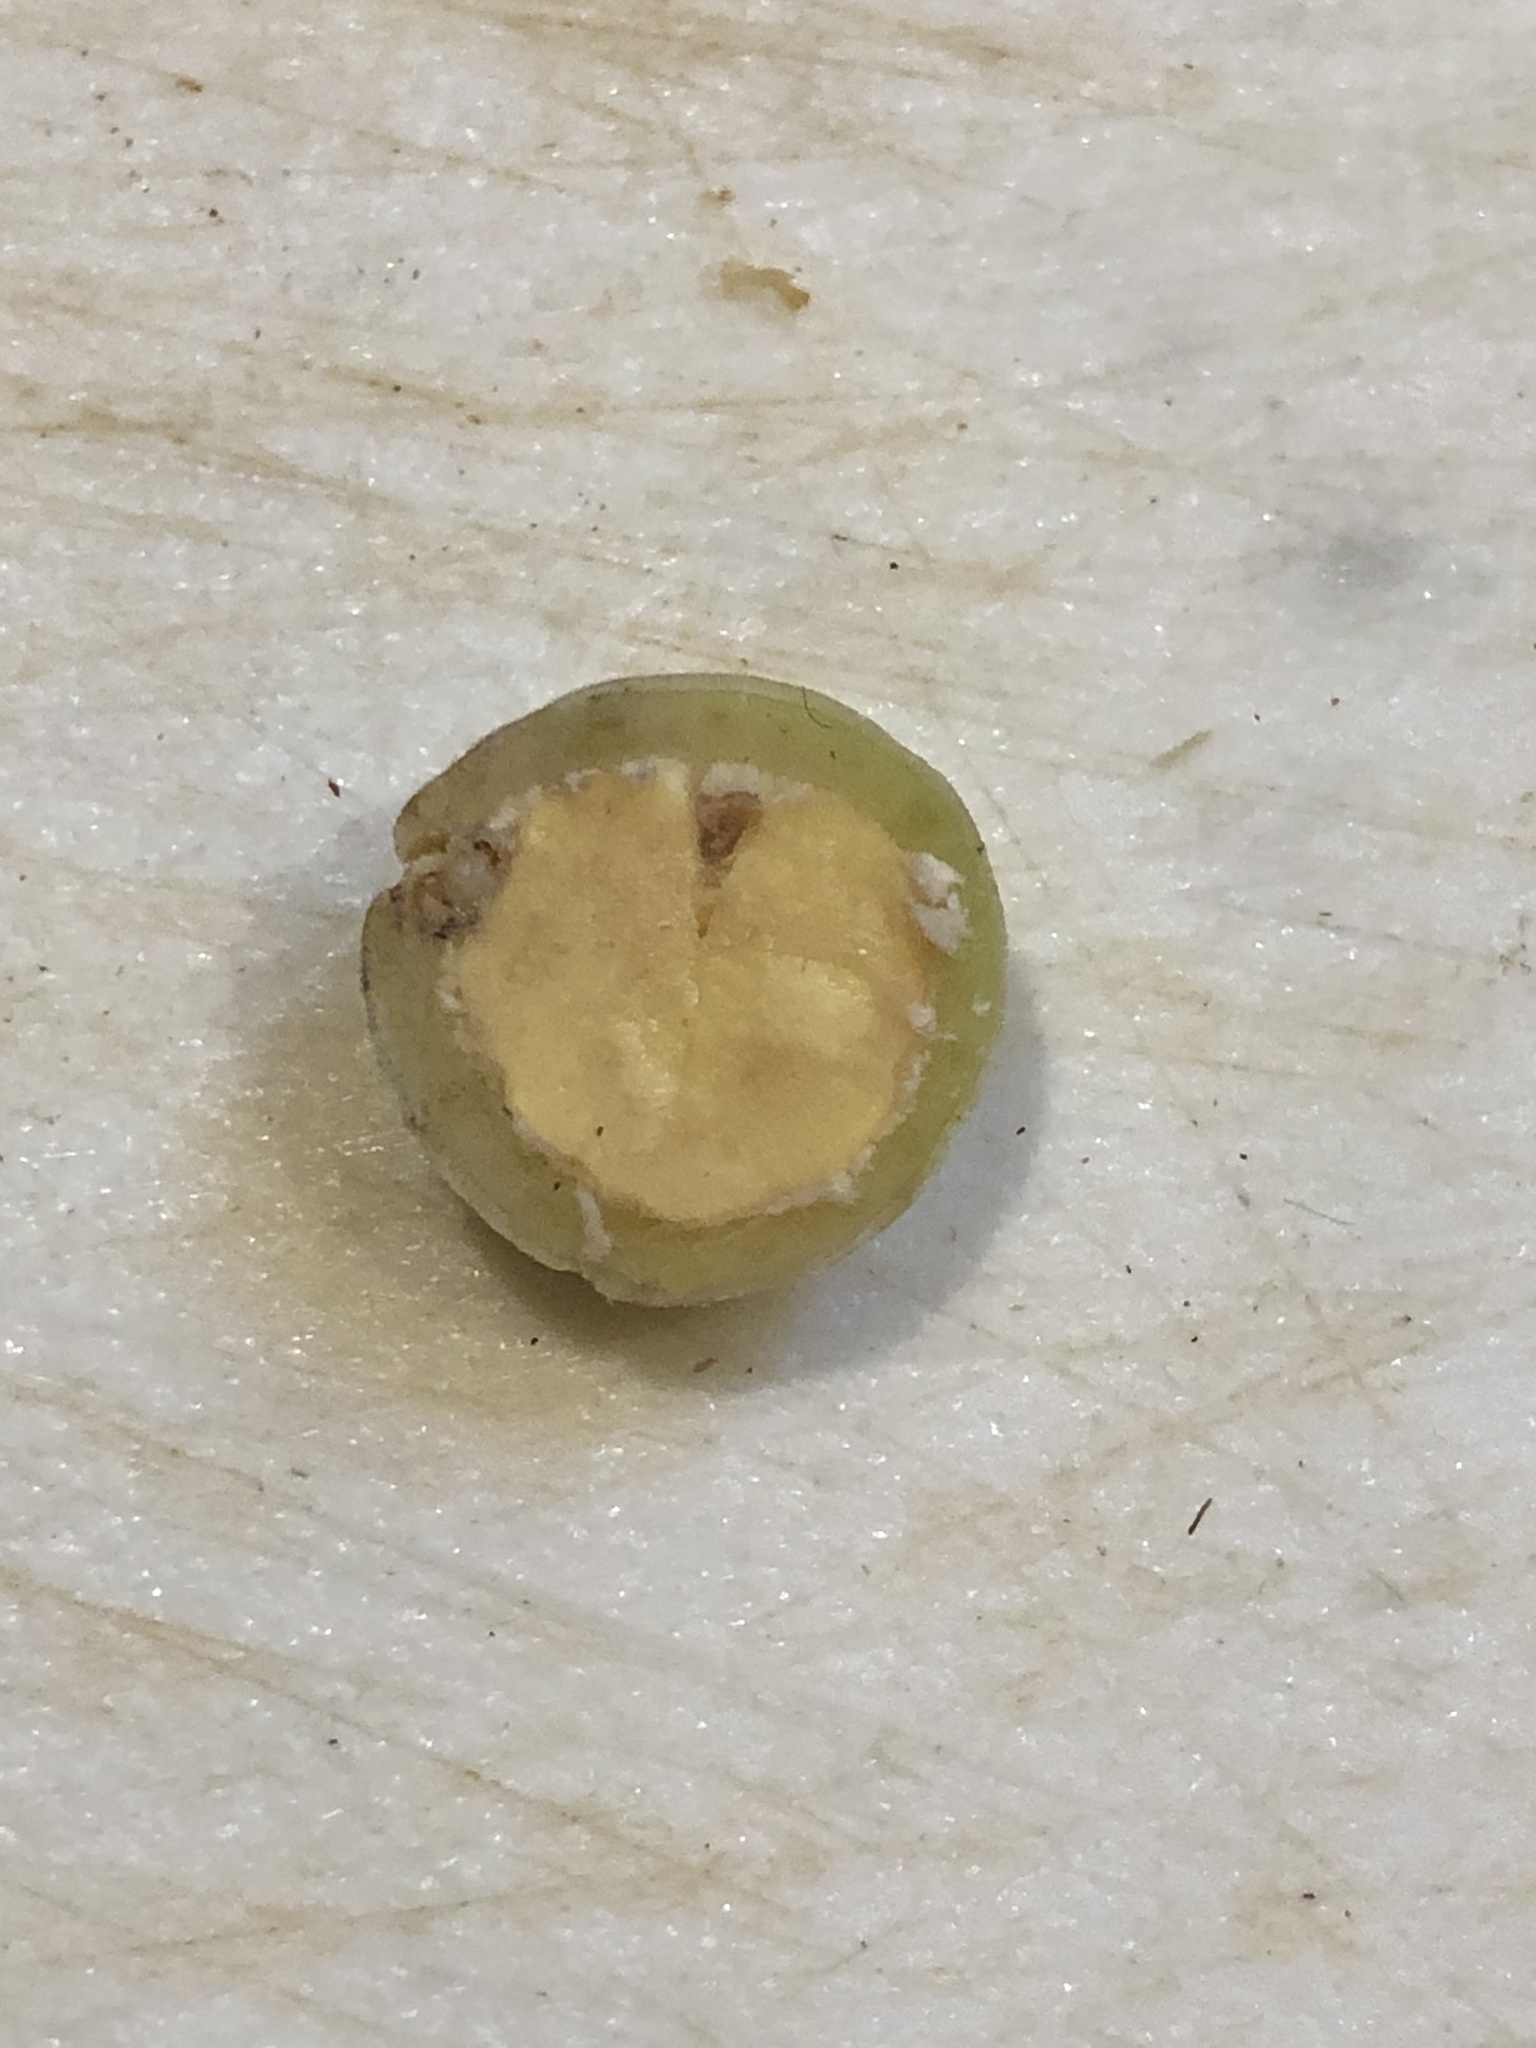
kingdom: Animalia
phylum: Arthropoda
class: Insecta
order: Hymenoptera
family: Cynipidae
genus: Callirhytis
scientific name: Callirhytis
